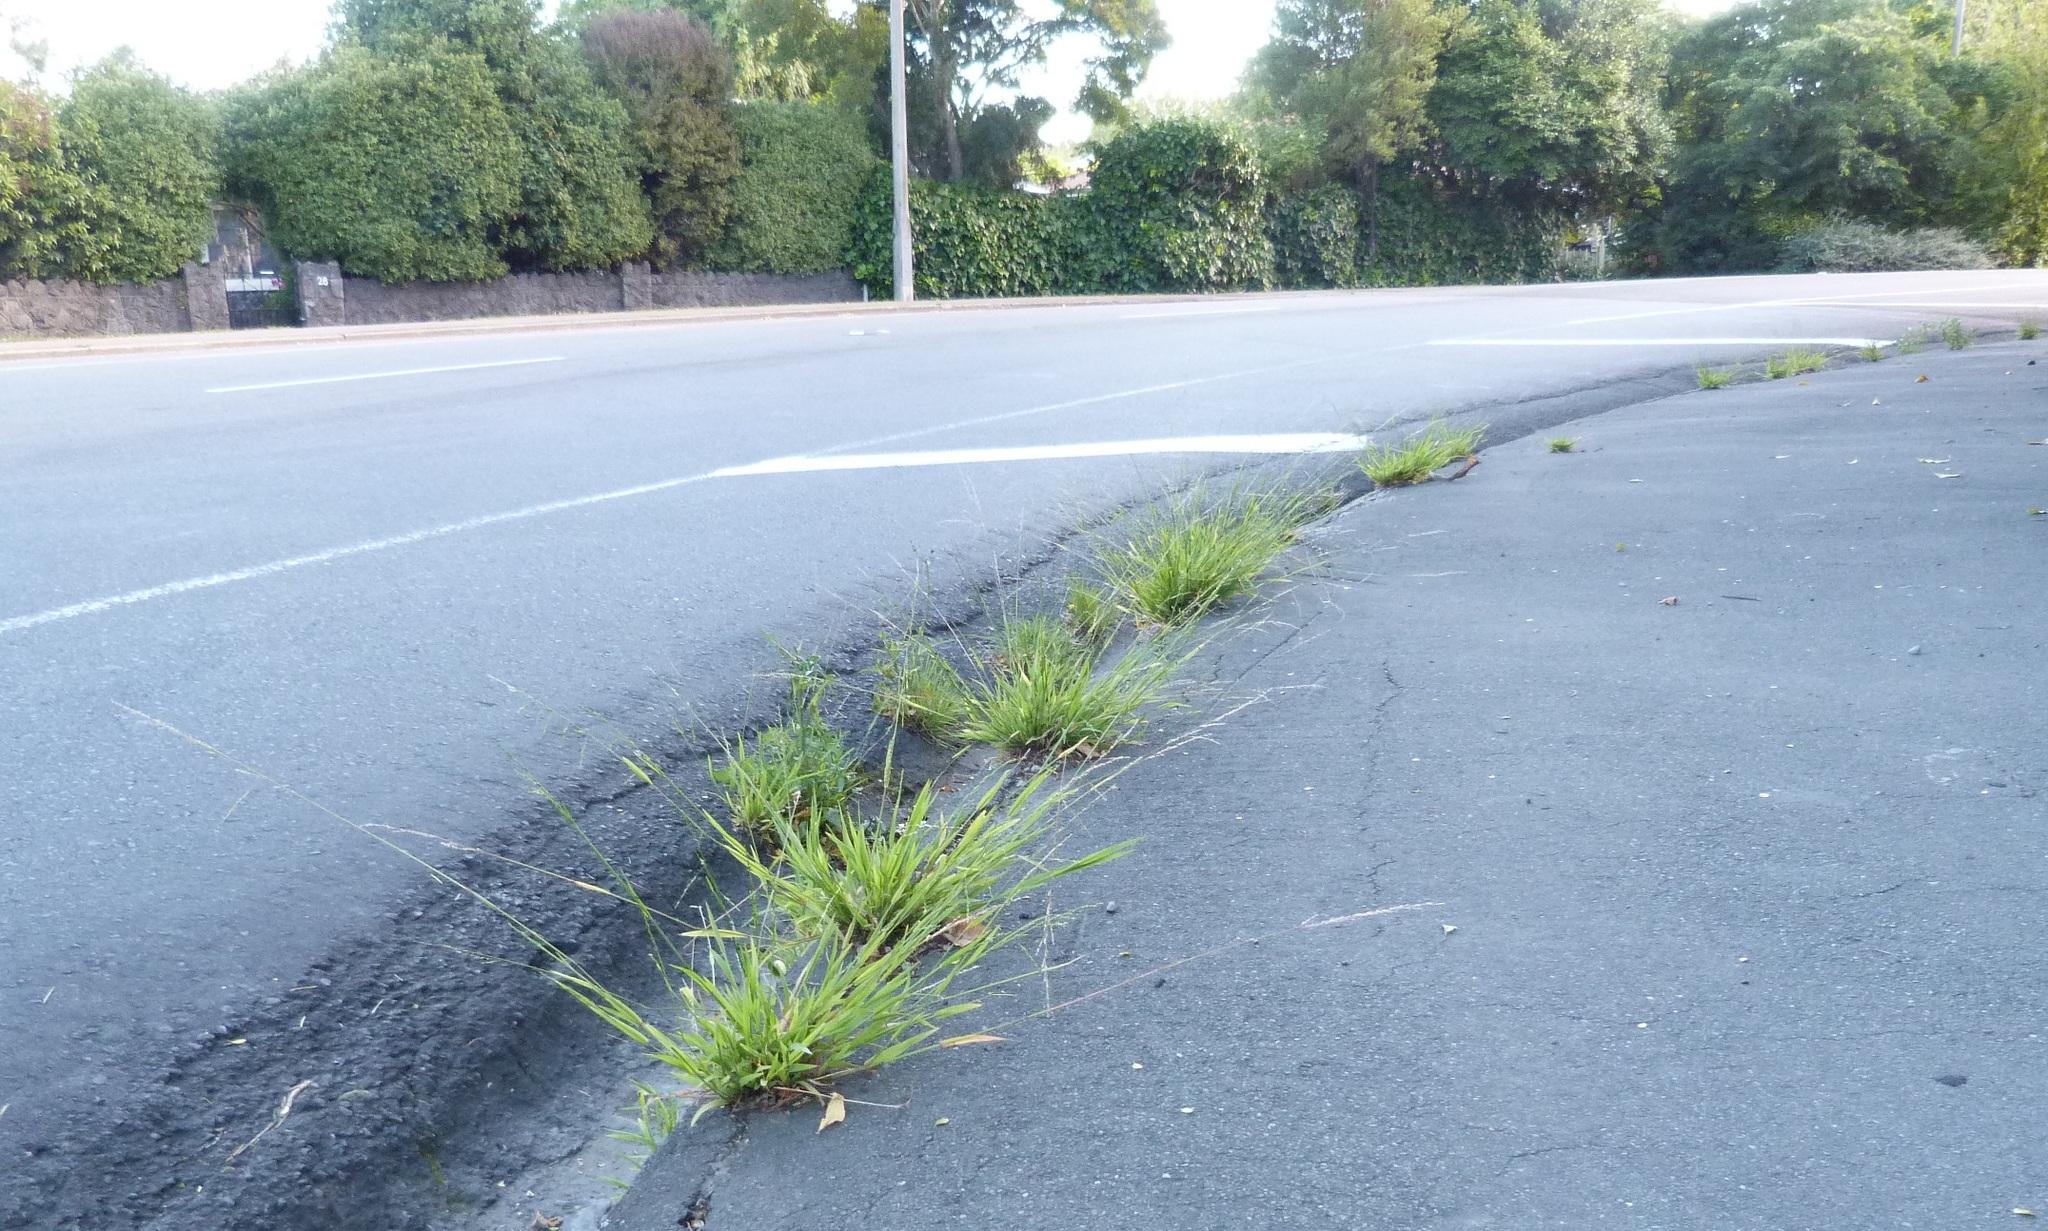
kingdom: Plantae
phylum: Tracheophyta
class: Liliopsida
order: Poales
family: Poaceae
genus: Ehrharta
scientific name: Ehrharta erecta
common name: Panic veldtgrass
